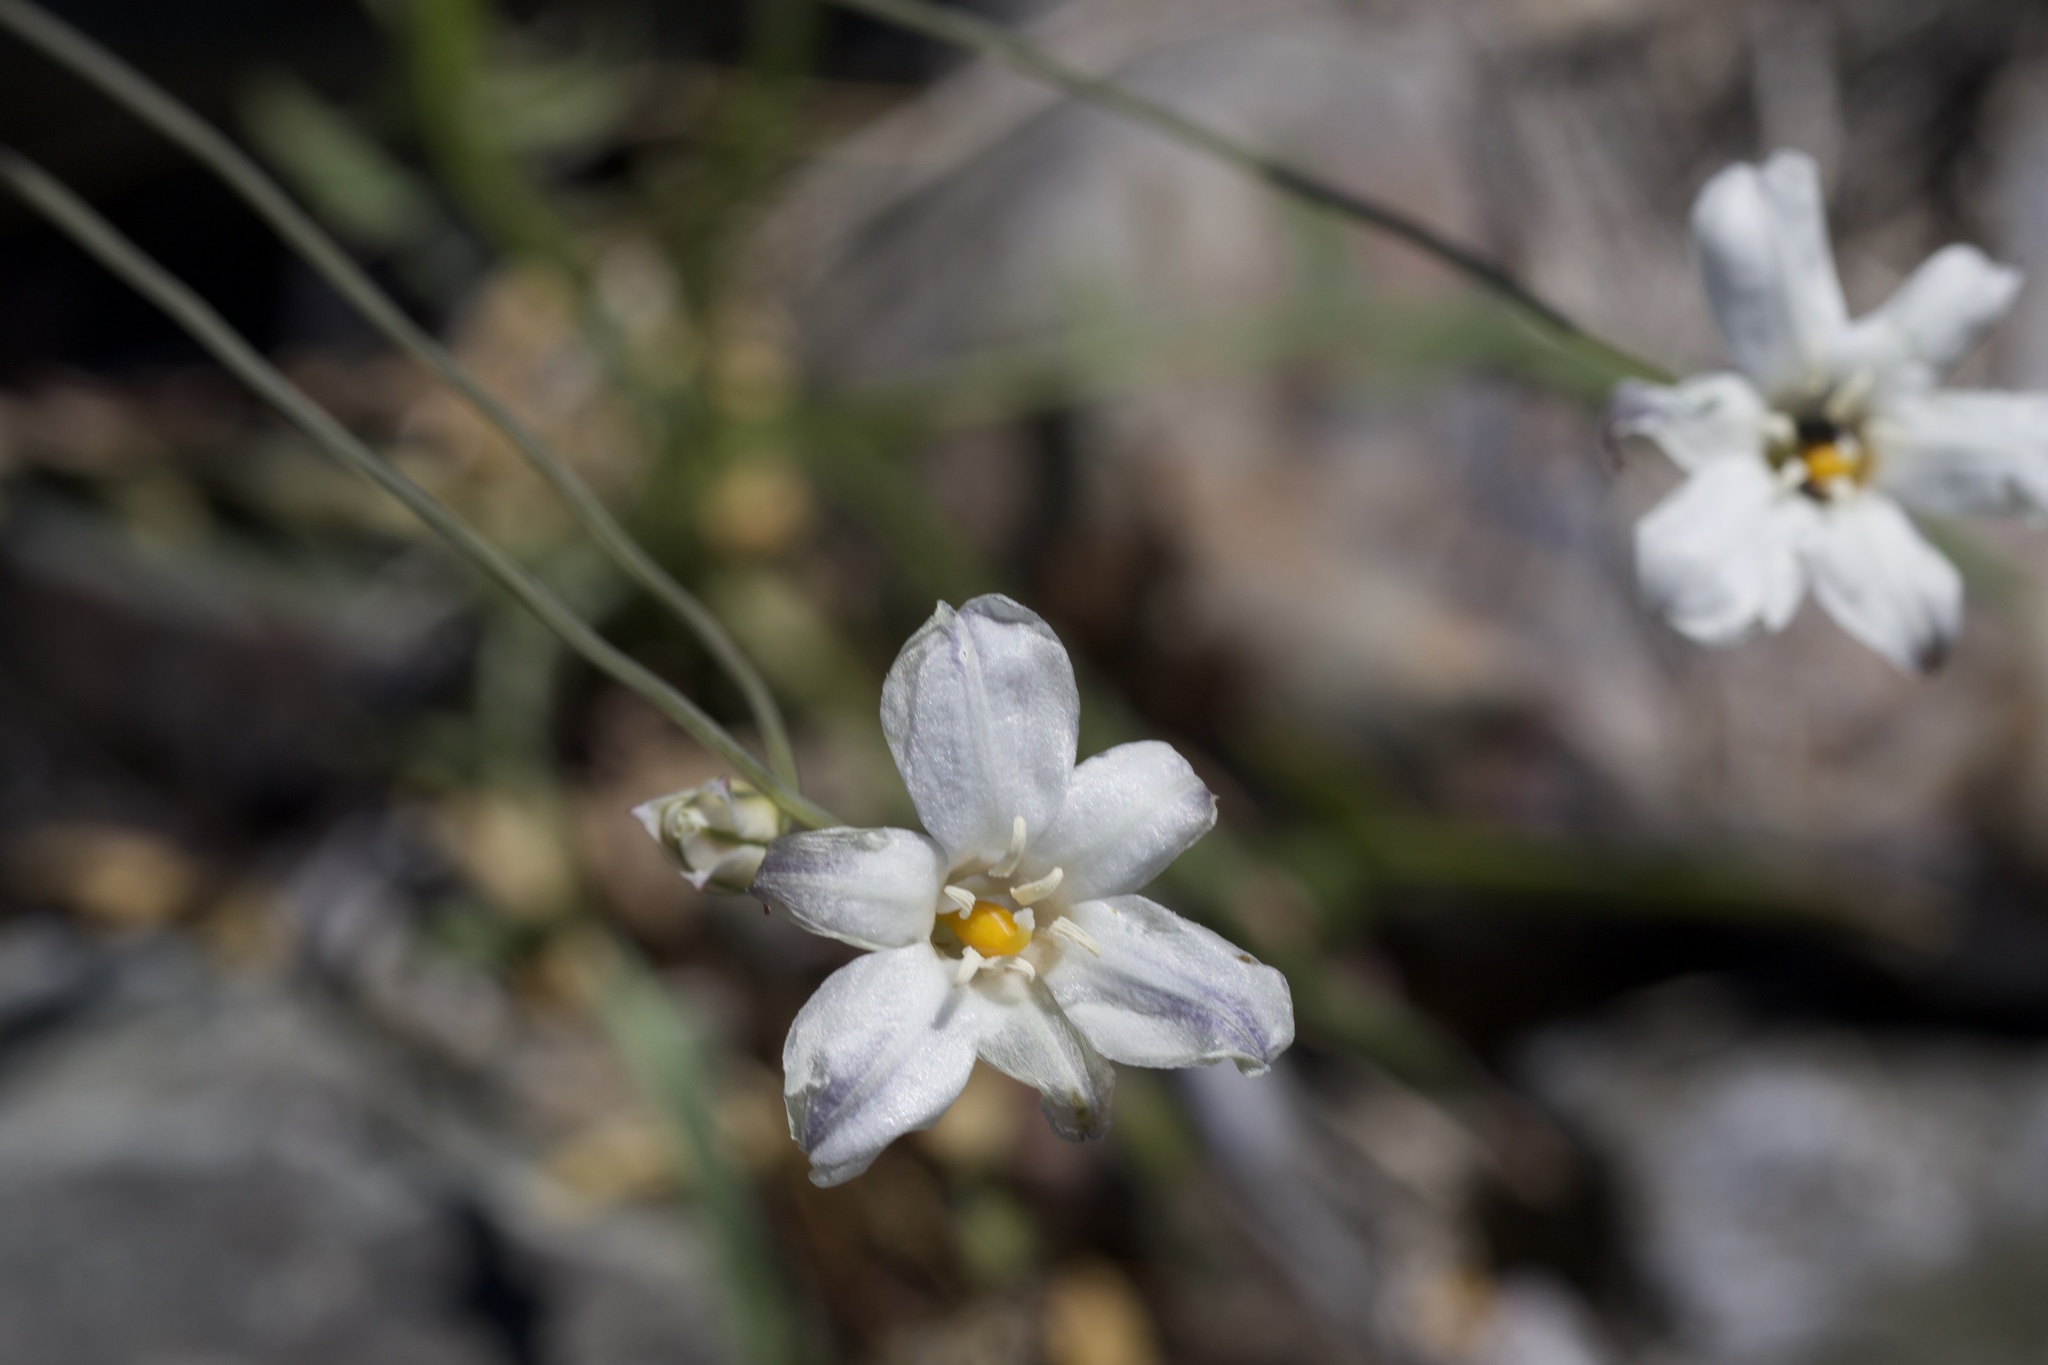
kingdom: Plantae
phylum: Tracheophyta
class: Liliopsida
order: Asparagales
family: Asparagaceae
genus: Triteleia
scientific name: Triteleia peduncularis
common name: Long-ray brodiaea
